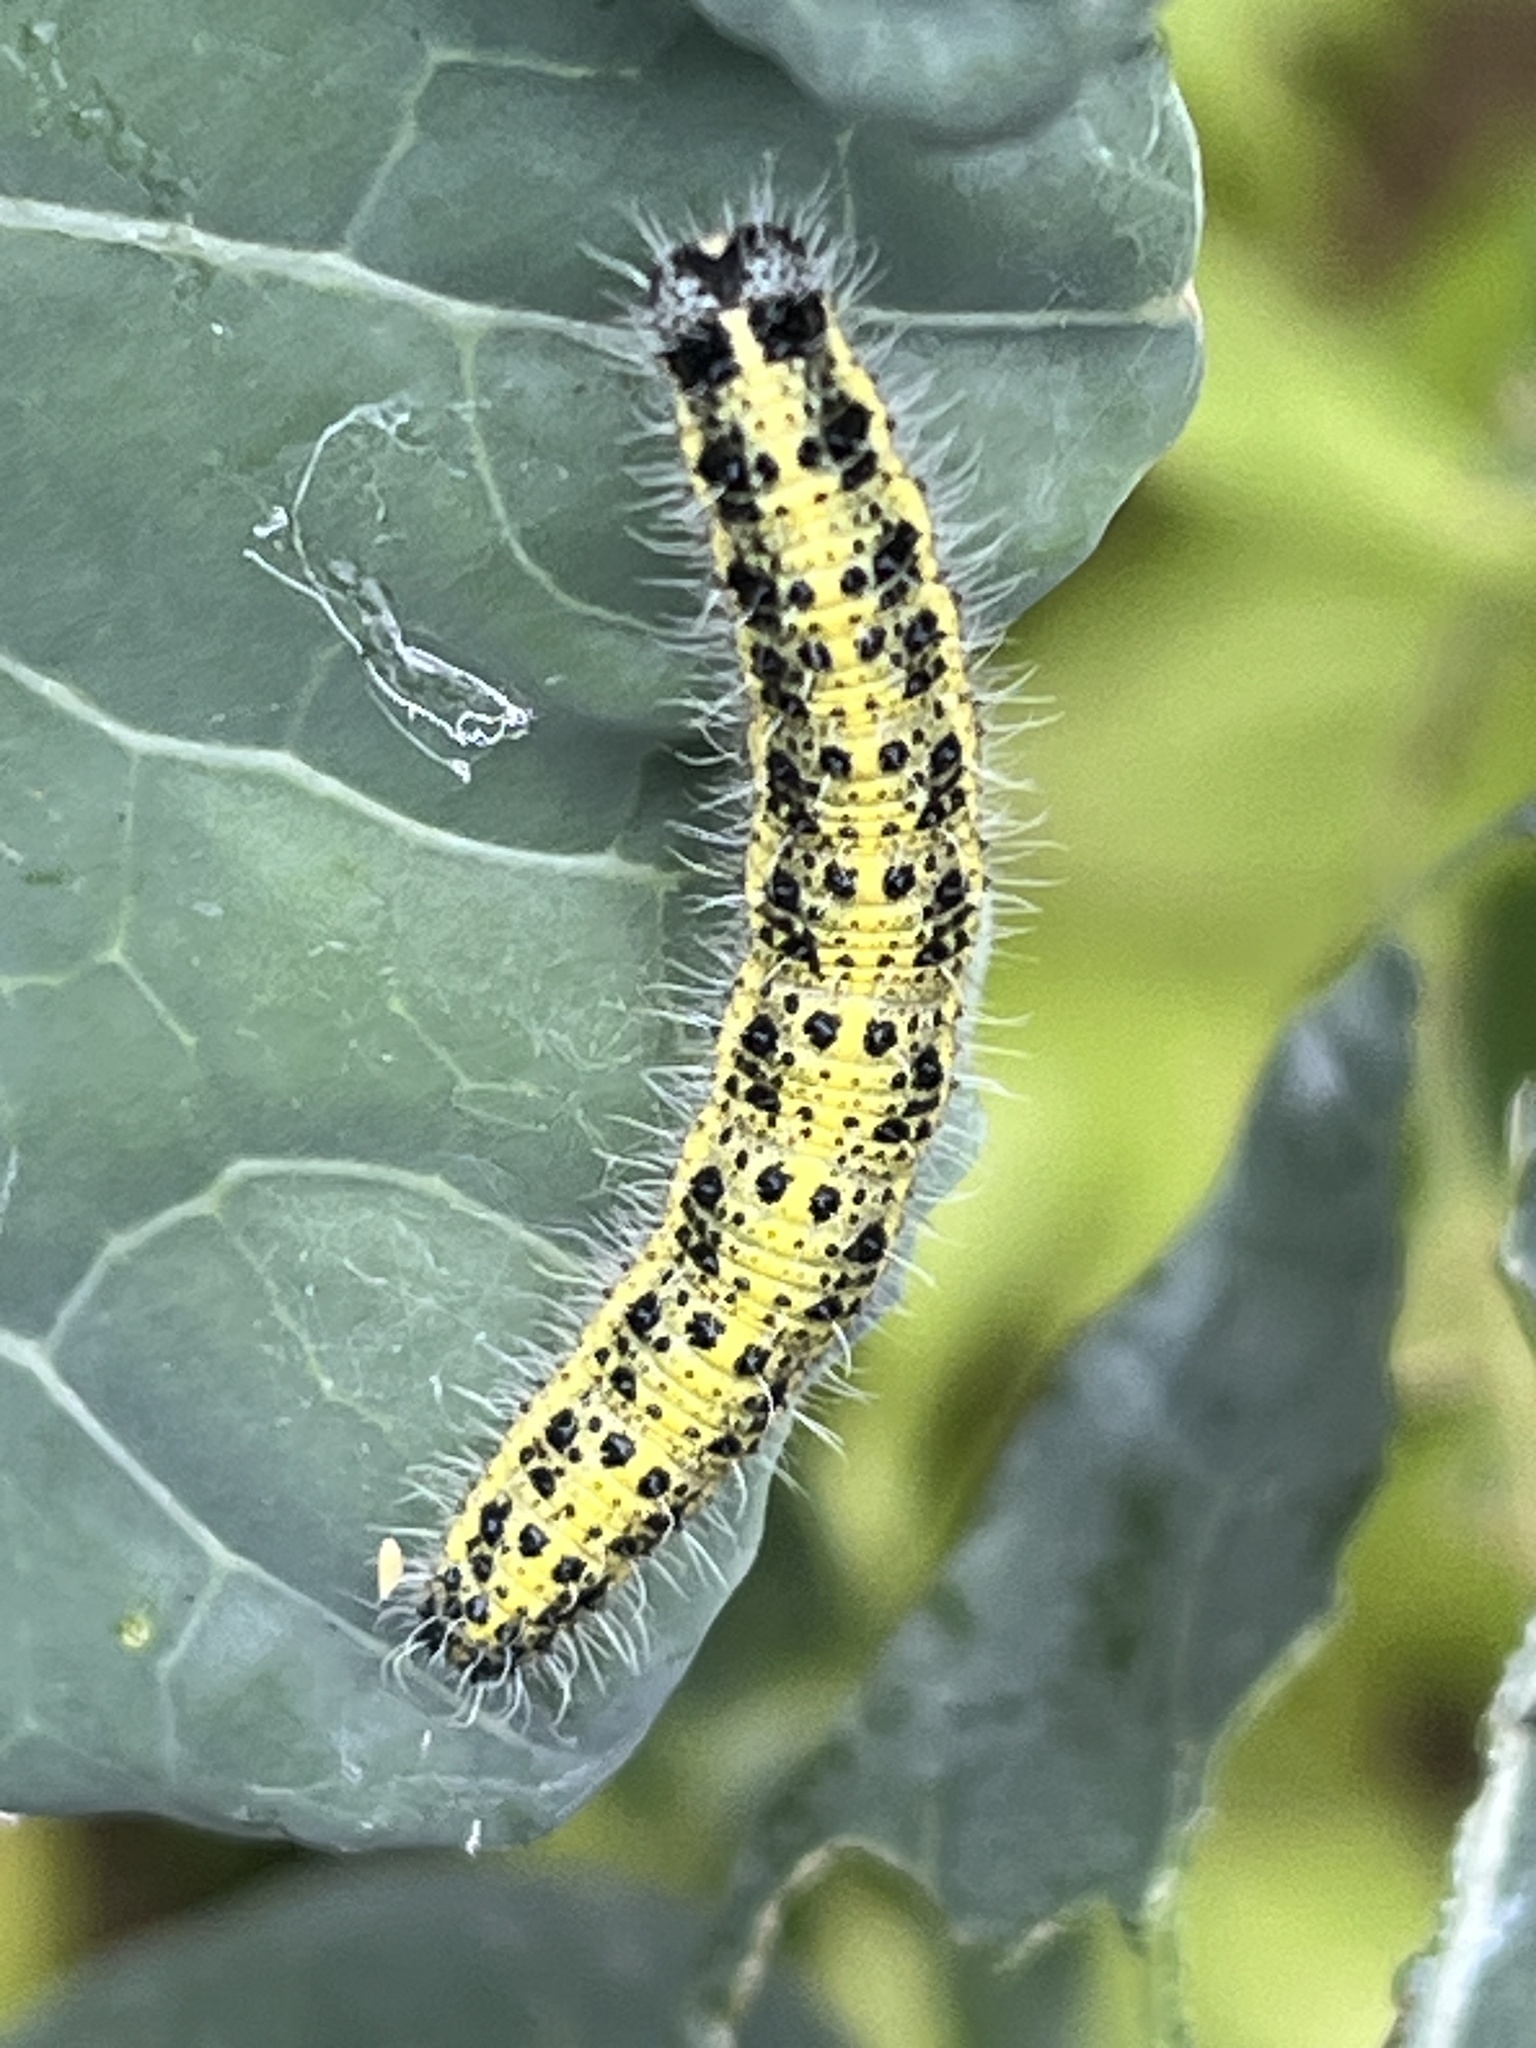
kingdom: Animalia
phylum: Arthropoda
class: Insecta
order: Lepidoptera
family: Pieridae
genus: Pieris
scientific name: Pieris brassicae
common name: Large white
